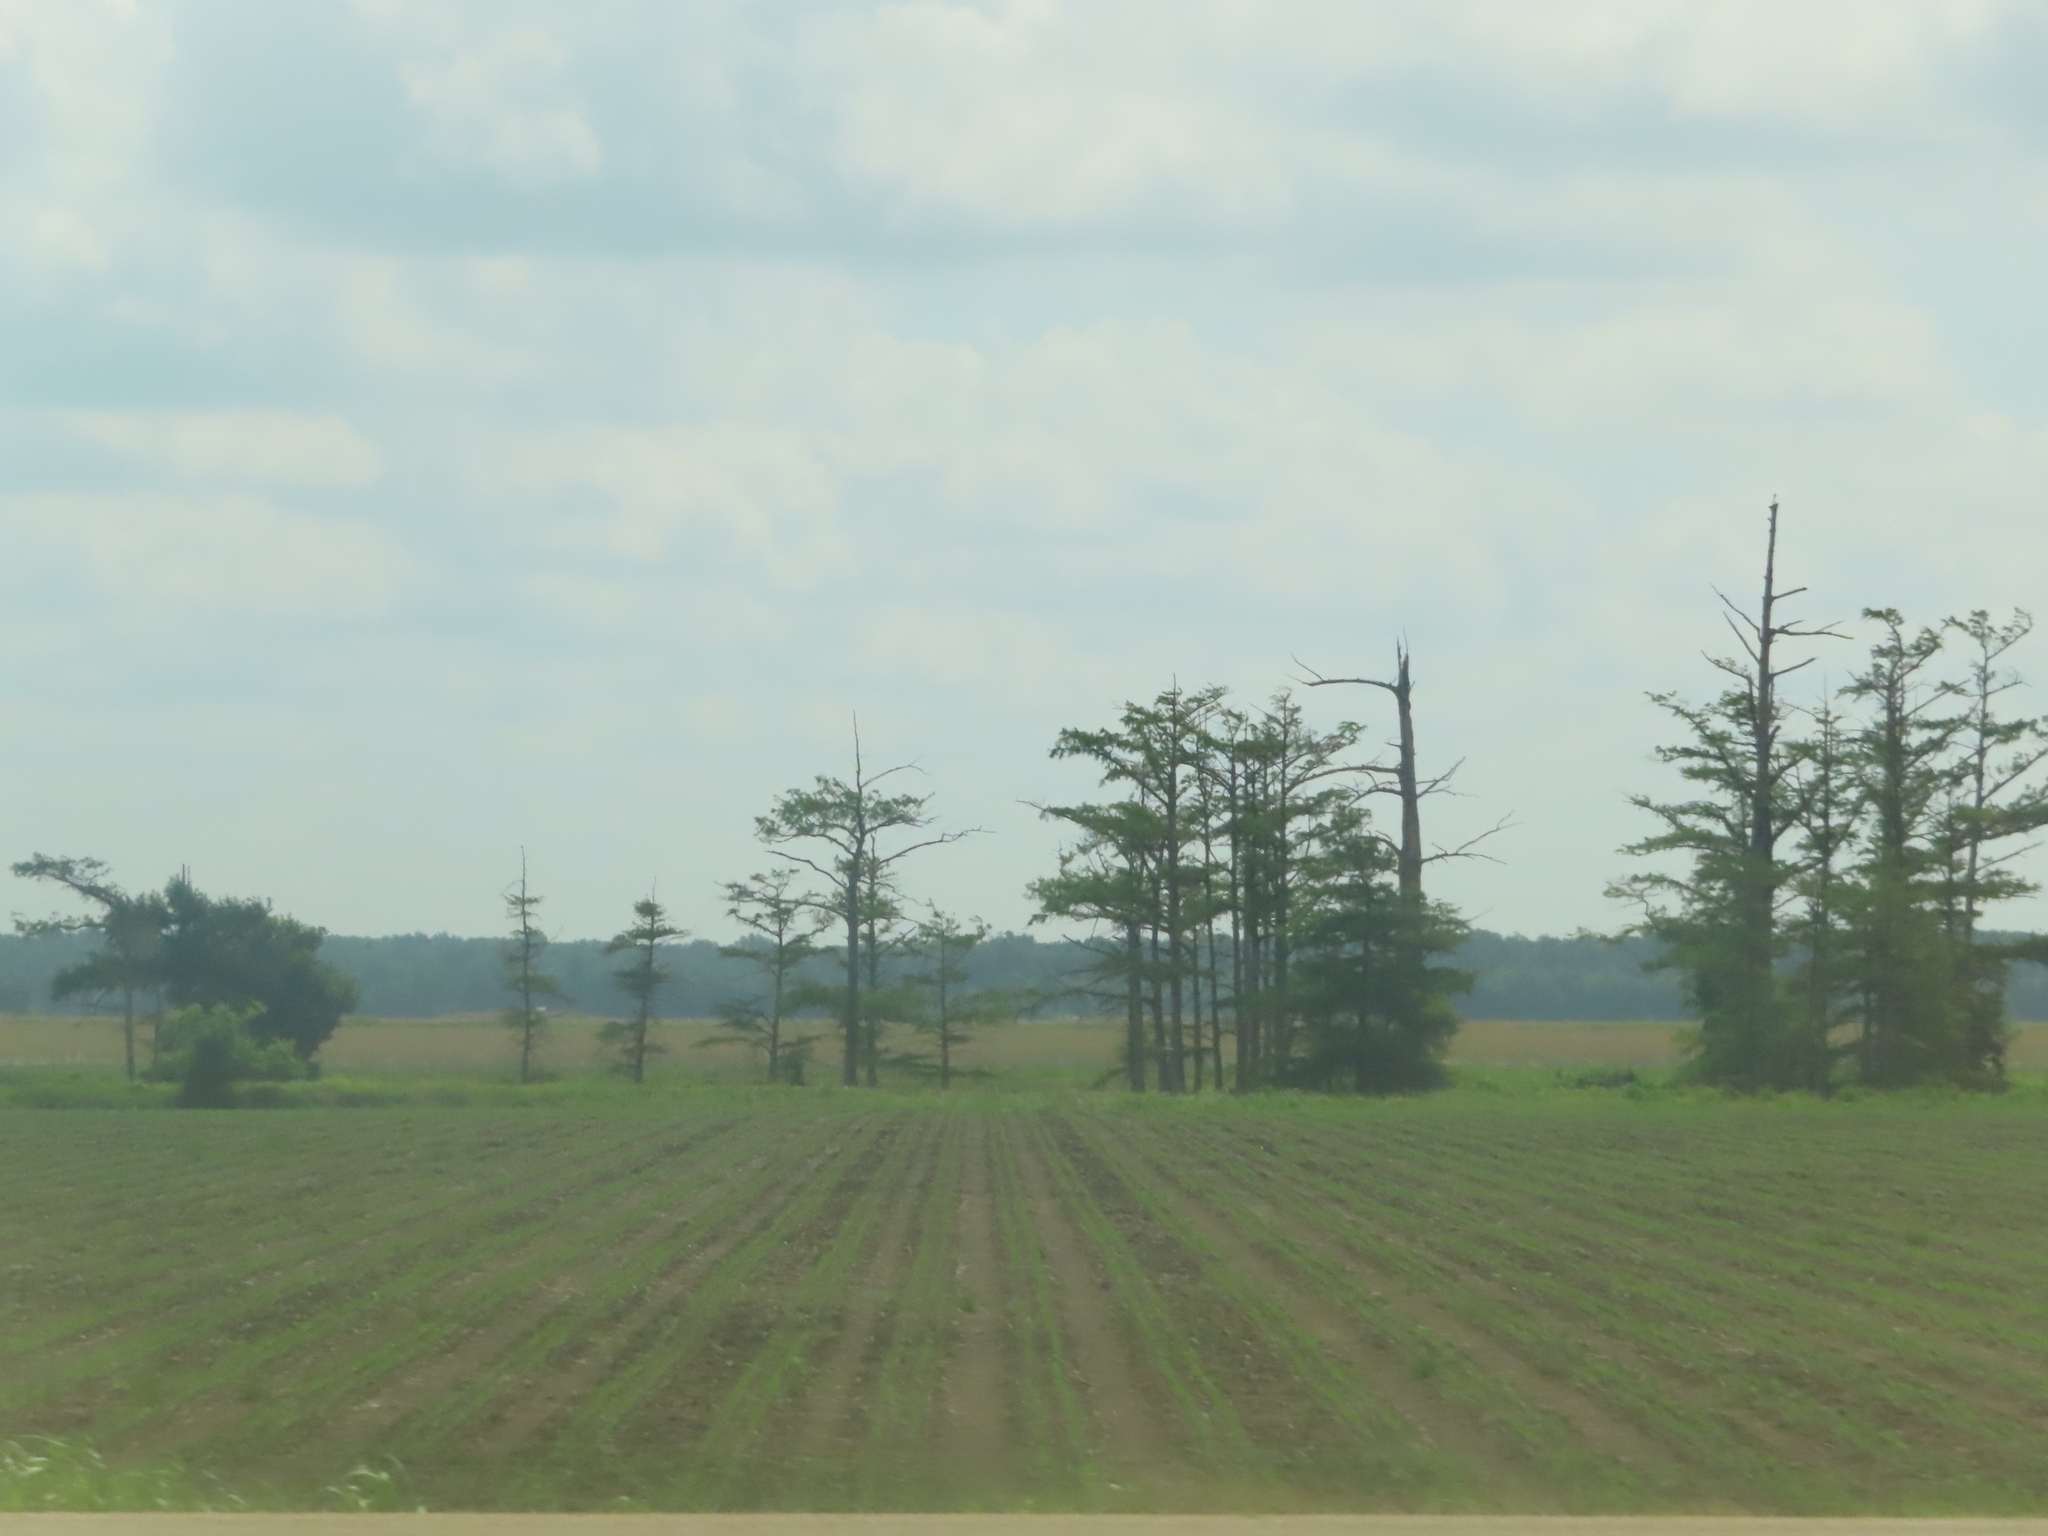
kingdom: Plantae
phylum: Tracheophyta
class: Pinopsida
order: Pinales
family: Cupressaceae
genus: Taxodium
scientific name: Taxodium distichum
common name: Bald cypress
